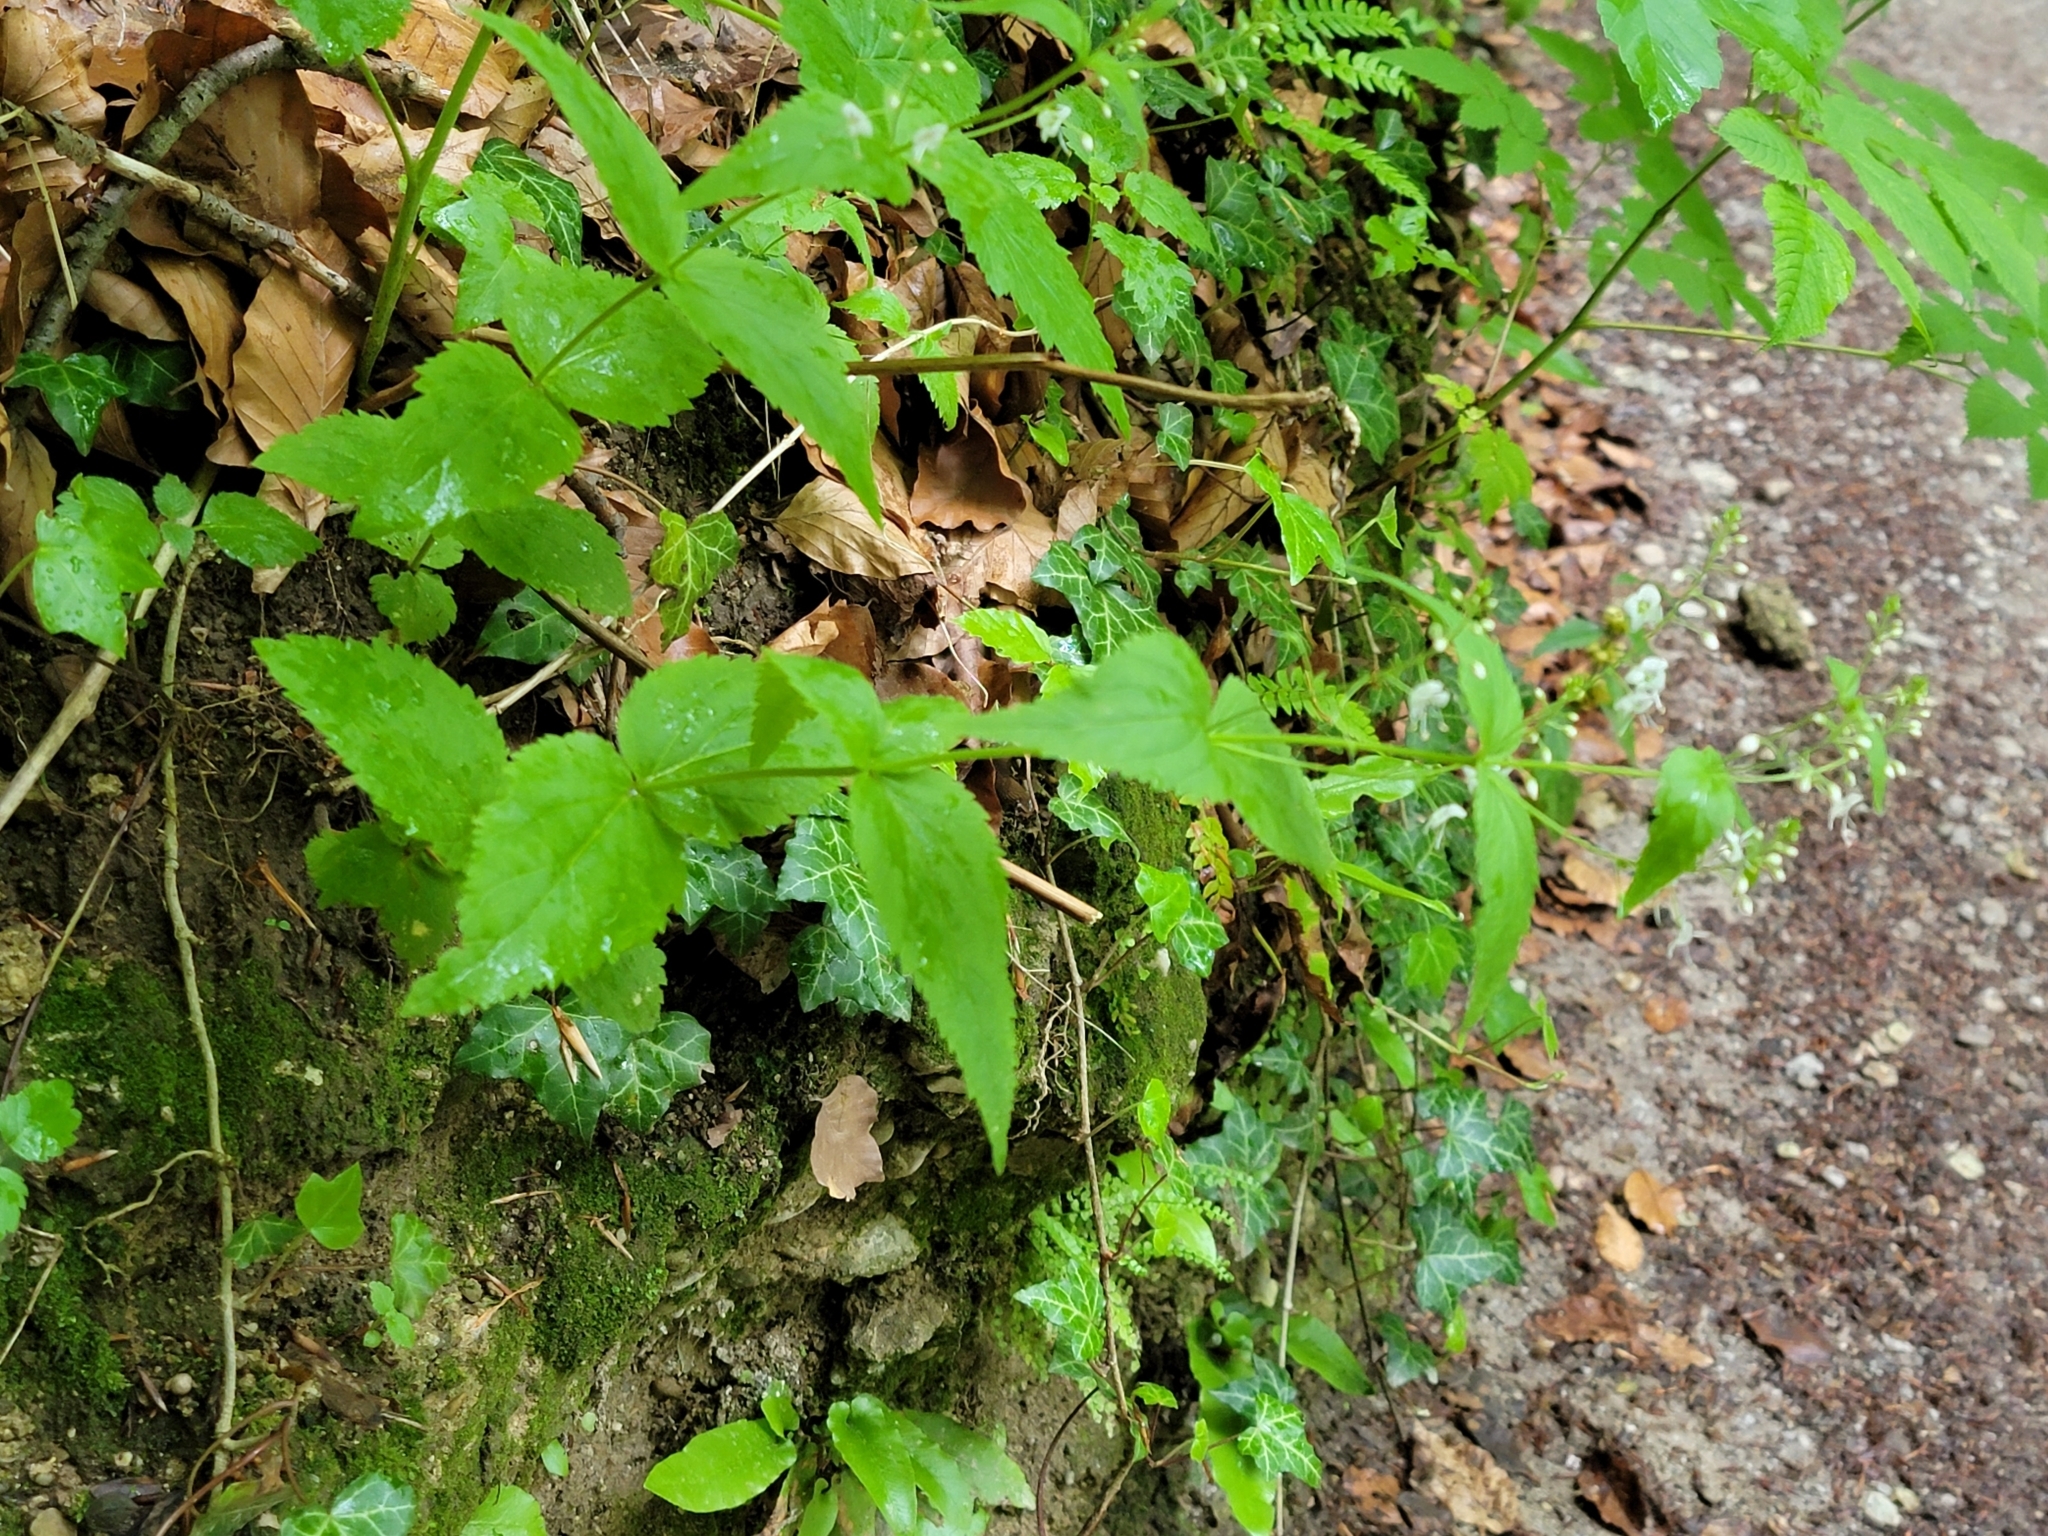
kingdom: Plantae
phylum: Tracheophyta
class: Magnoliopsida
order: Lamiales
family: Plantaginaceae
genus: Veronica
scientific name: Veronica urticifolia
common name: Nettle-leaf speedwell
